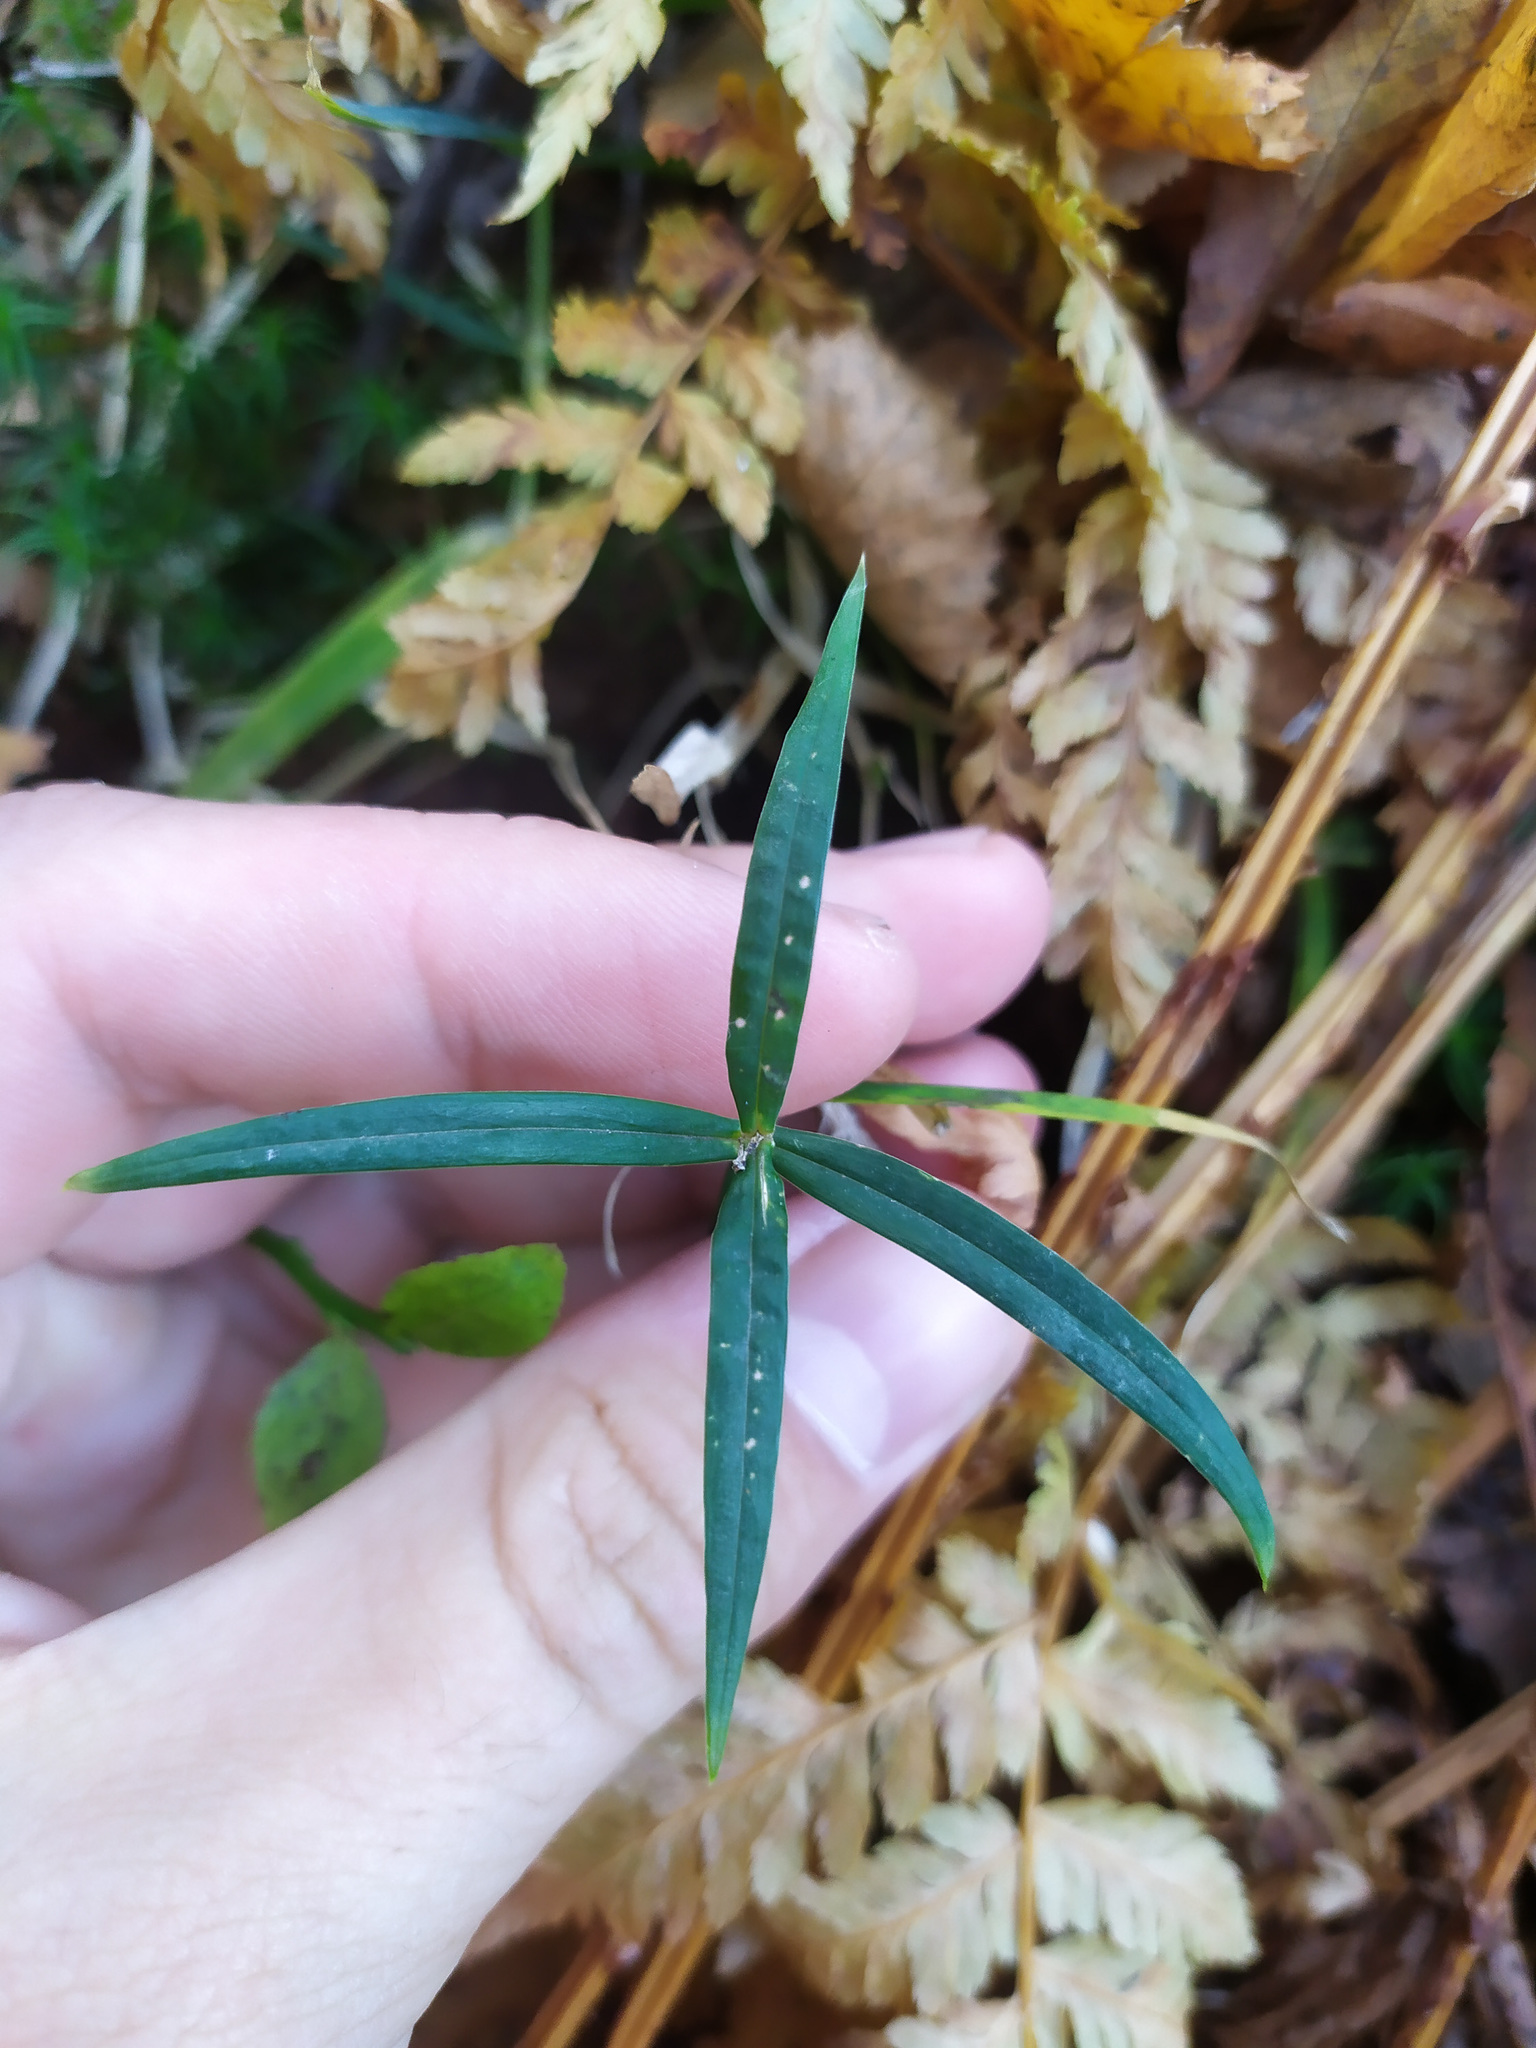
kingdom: Plantae
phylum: Tracheophyta
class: Magnoliopsida
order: Caryophyllales
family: Caryophyllaceae
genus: Rabelera
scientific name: Rabelera holostea
